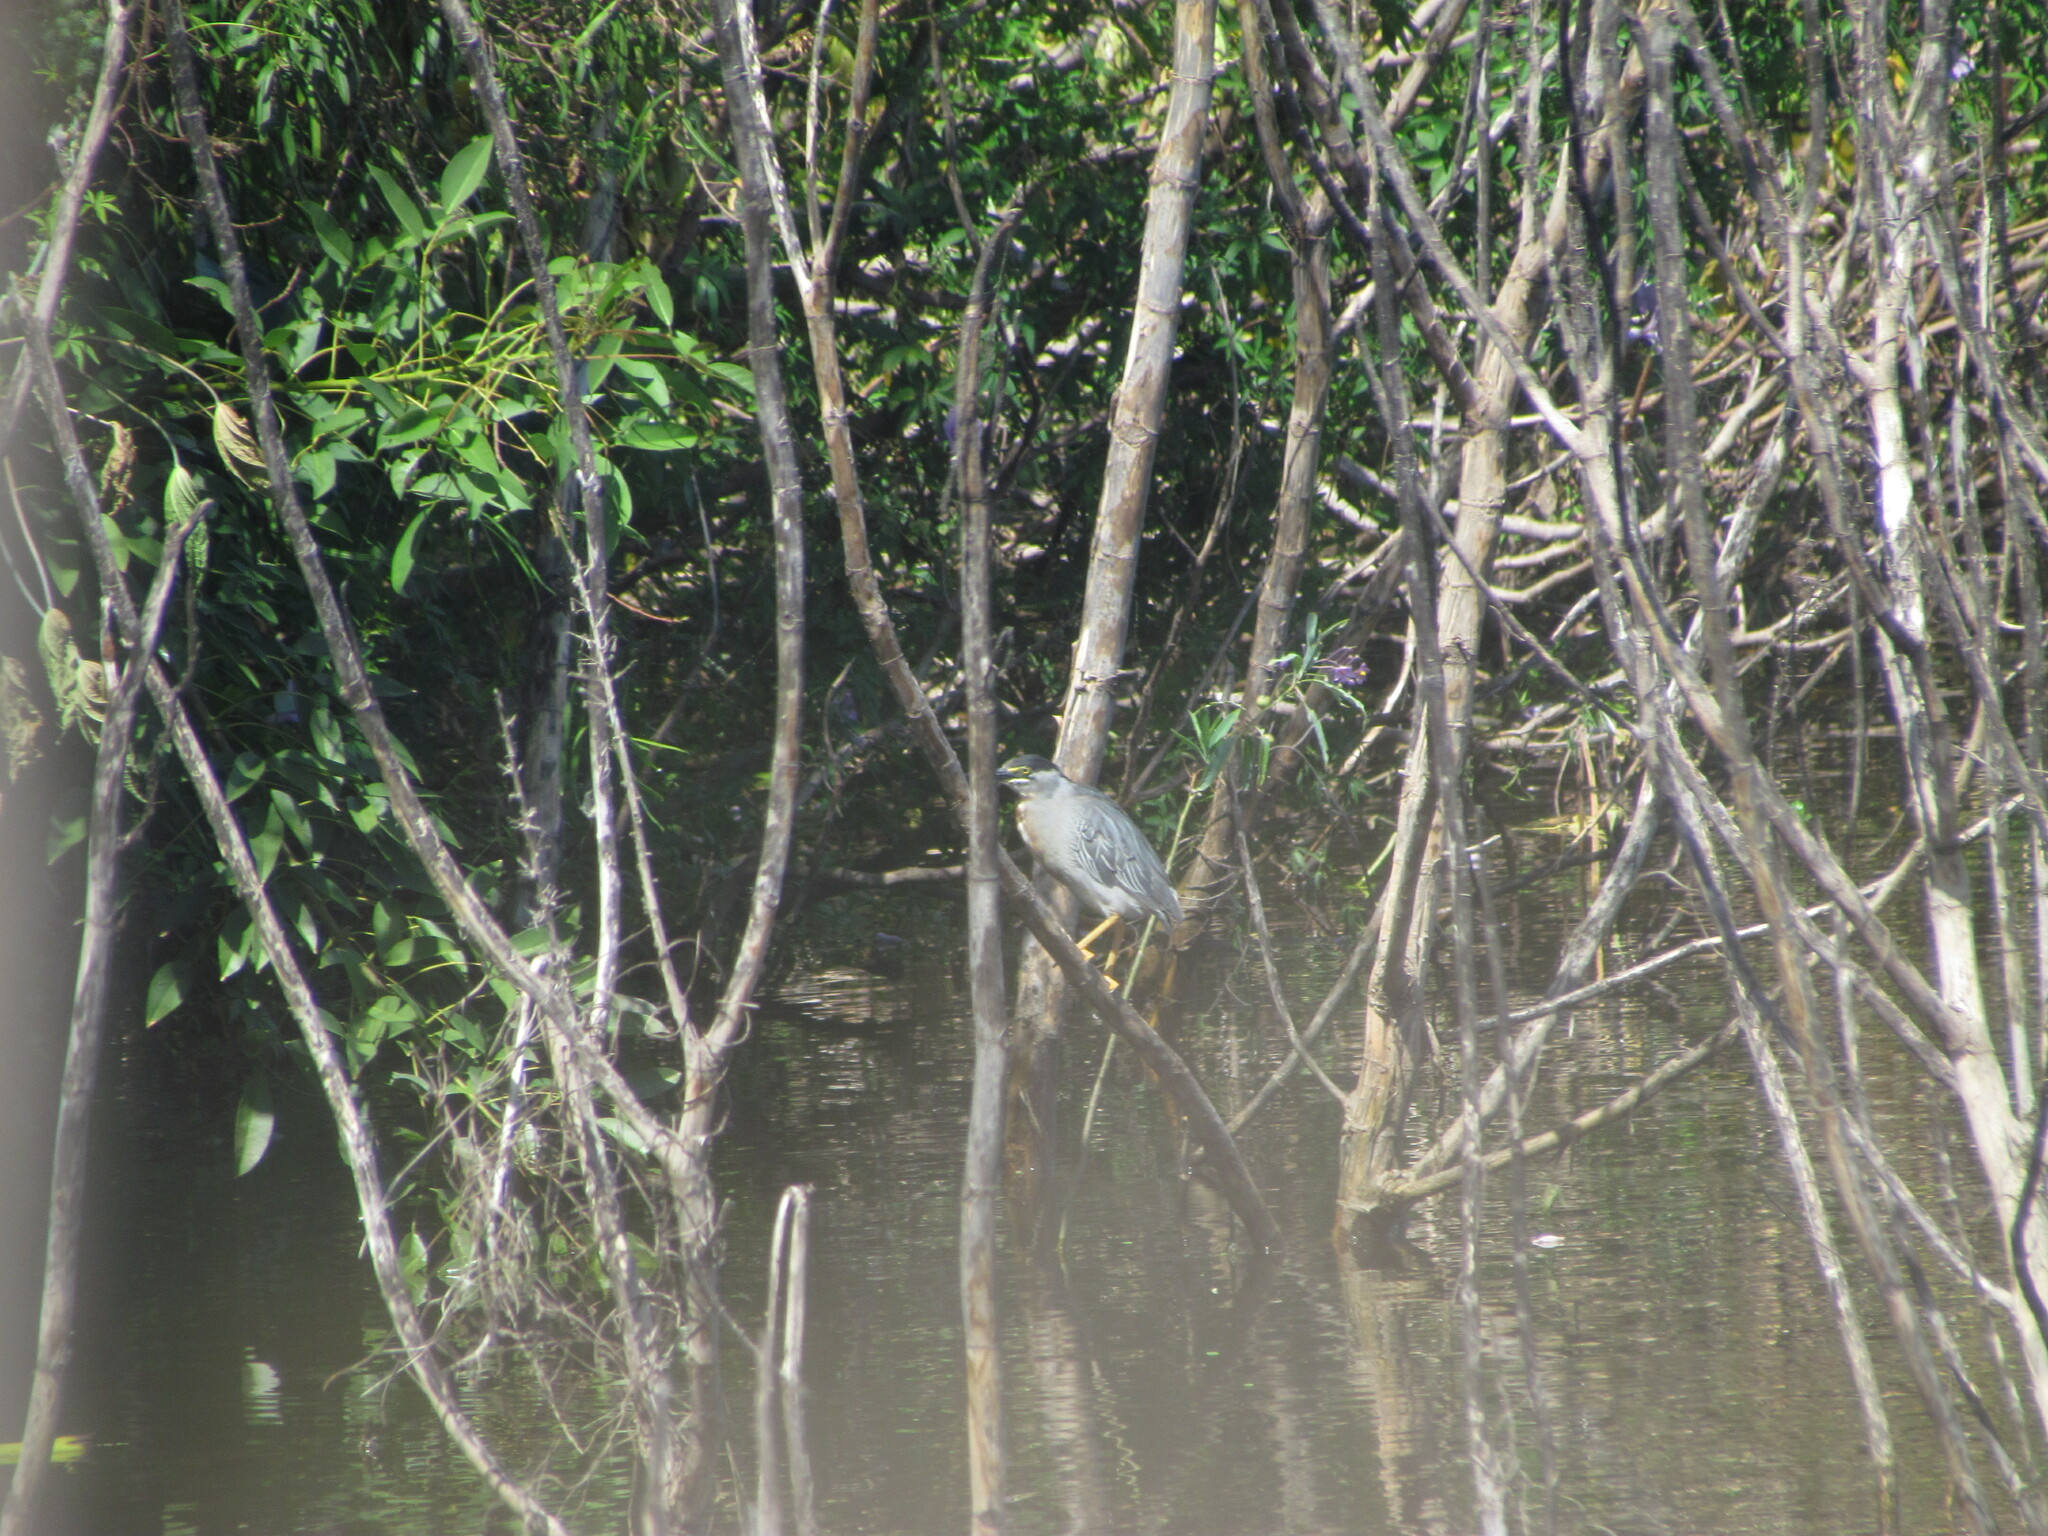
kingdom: Animalia
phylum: Chordata
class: Aves
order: Pelecaniformes
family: Ardeidae
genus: Butorides
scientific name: Butorides striata
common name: Striated heron
